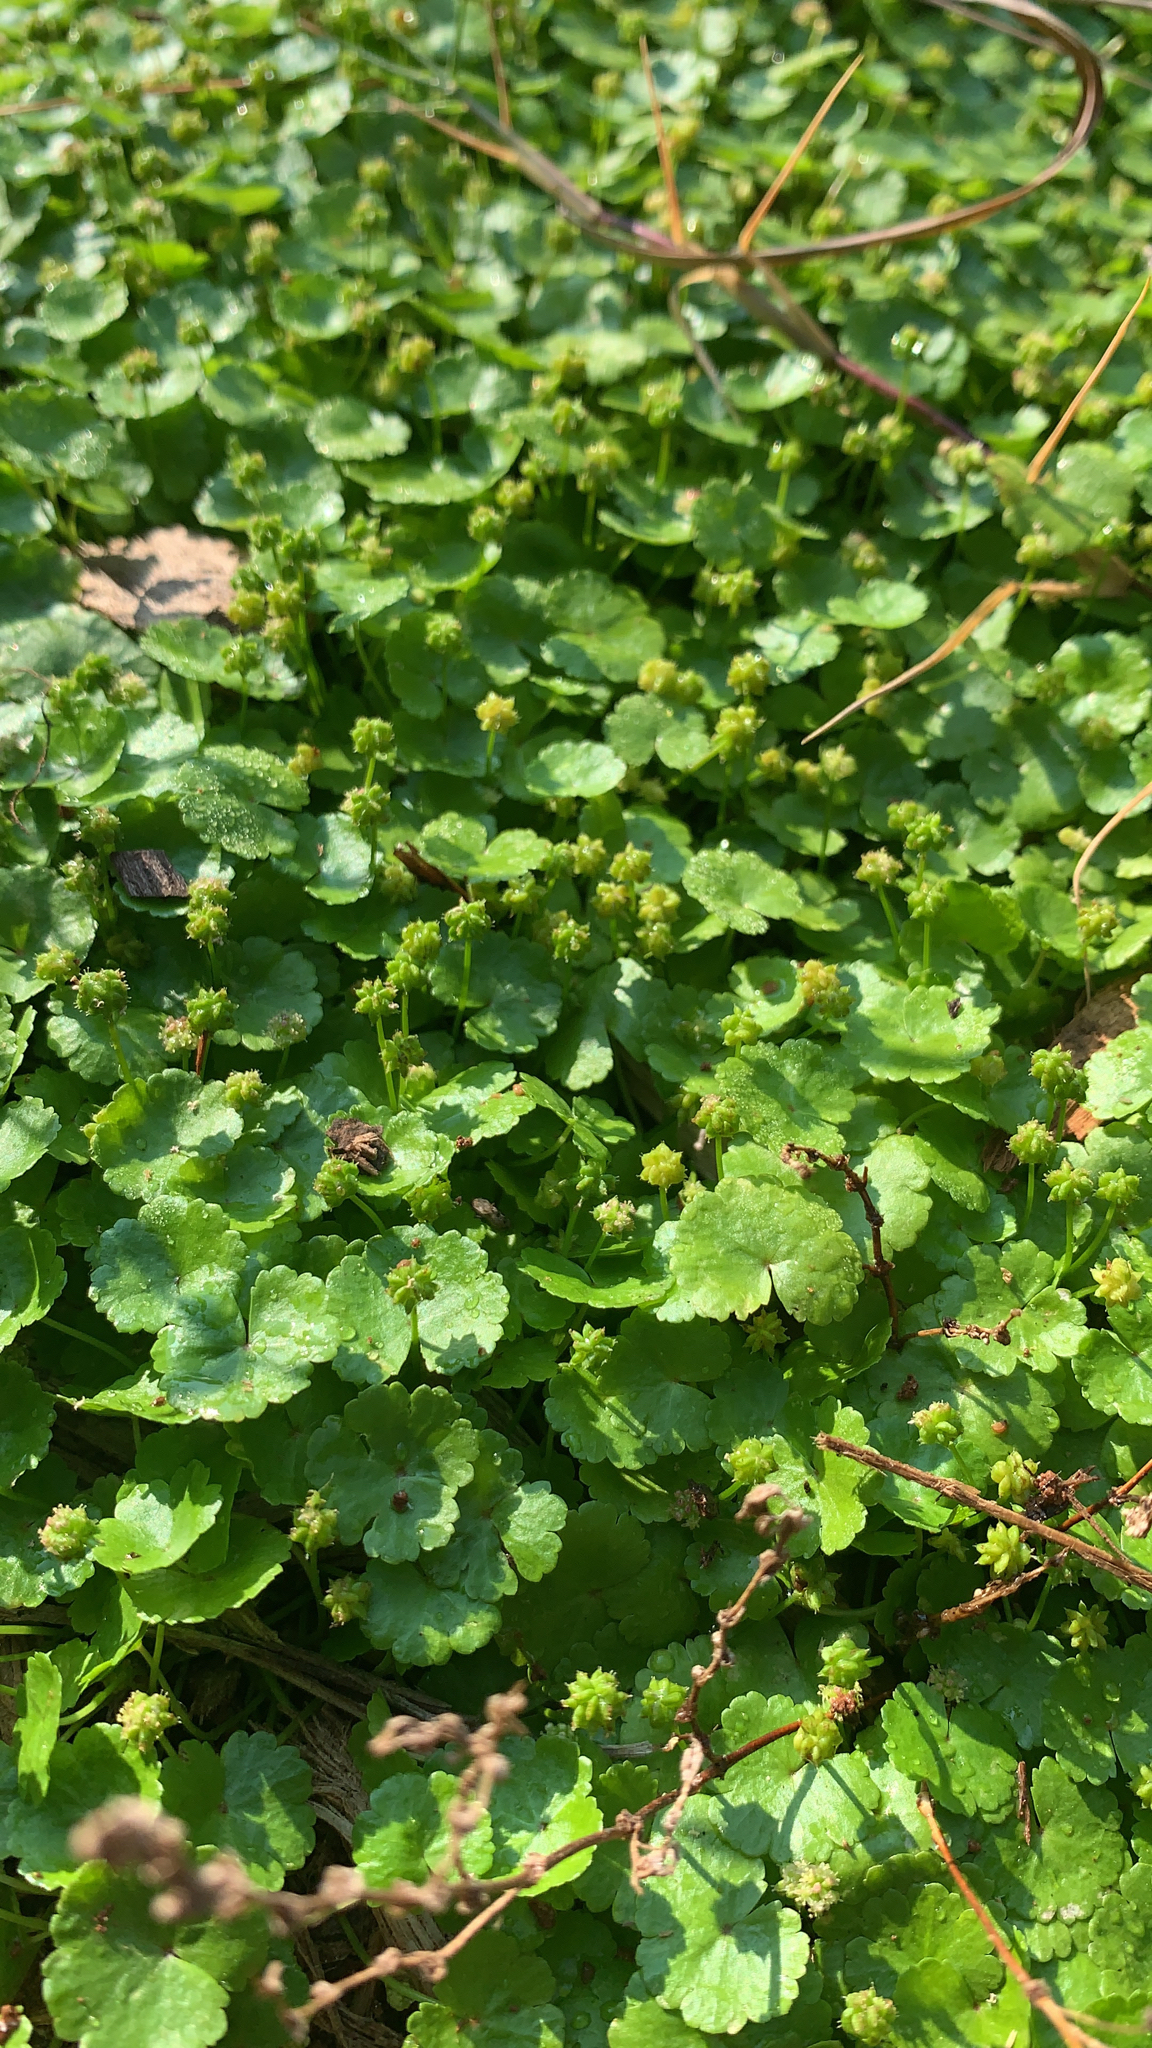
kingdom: Plantae
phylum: Tracheophyta
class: Magnoliopsida
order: Apiales
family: Araliaceae
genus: Hydrocotyle
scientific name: Hydrocotyle sibthorpioides
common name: Lawn marshpennywort
